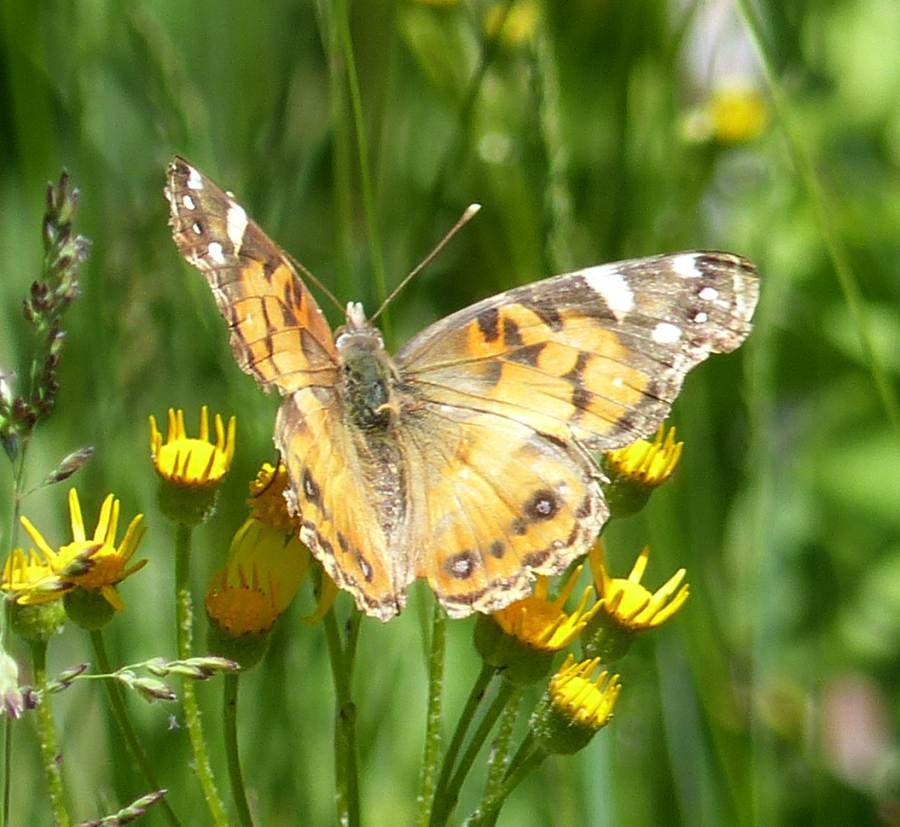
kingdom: Animalia
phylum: Arthropoda
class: Insecta
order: Lepidoptera
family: Nymphalidae
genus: Vanessa
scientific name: Vanessa virginiensis
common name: American lady
